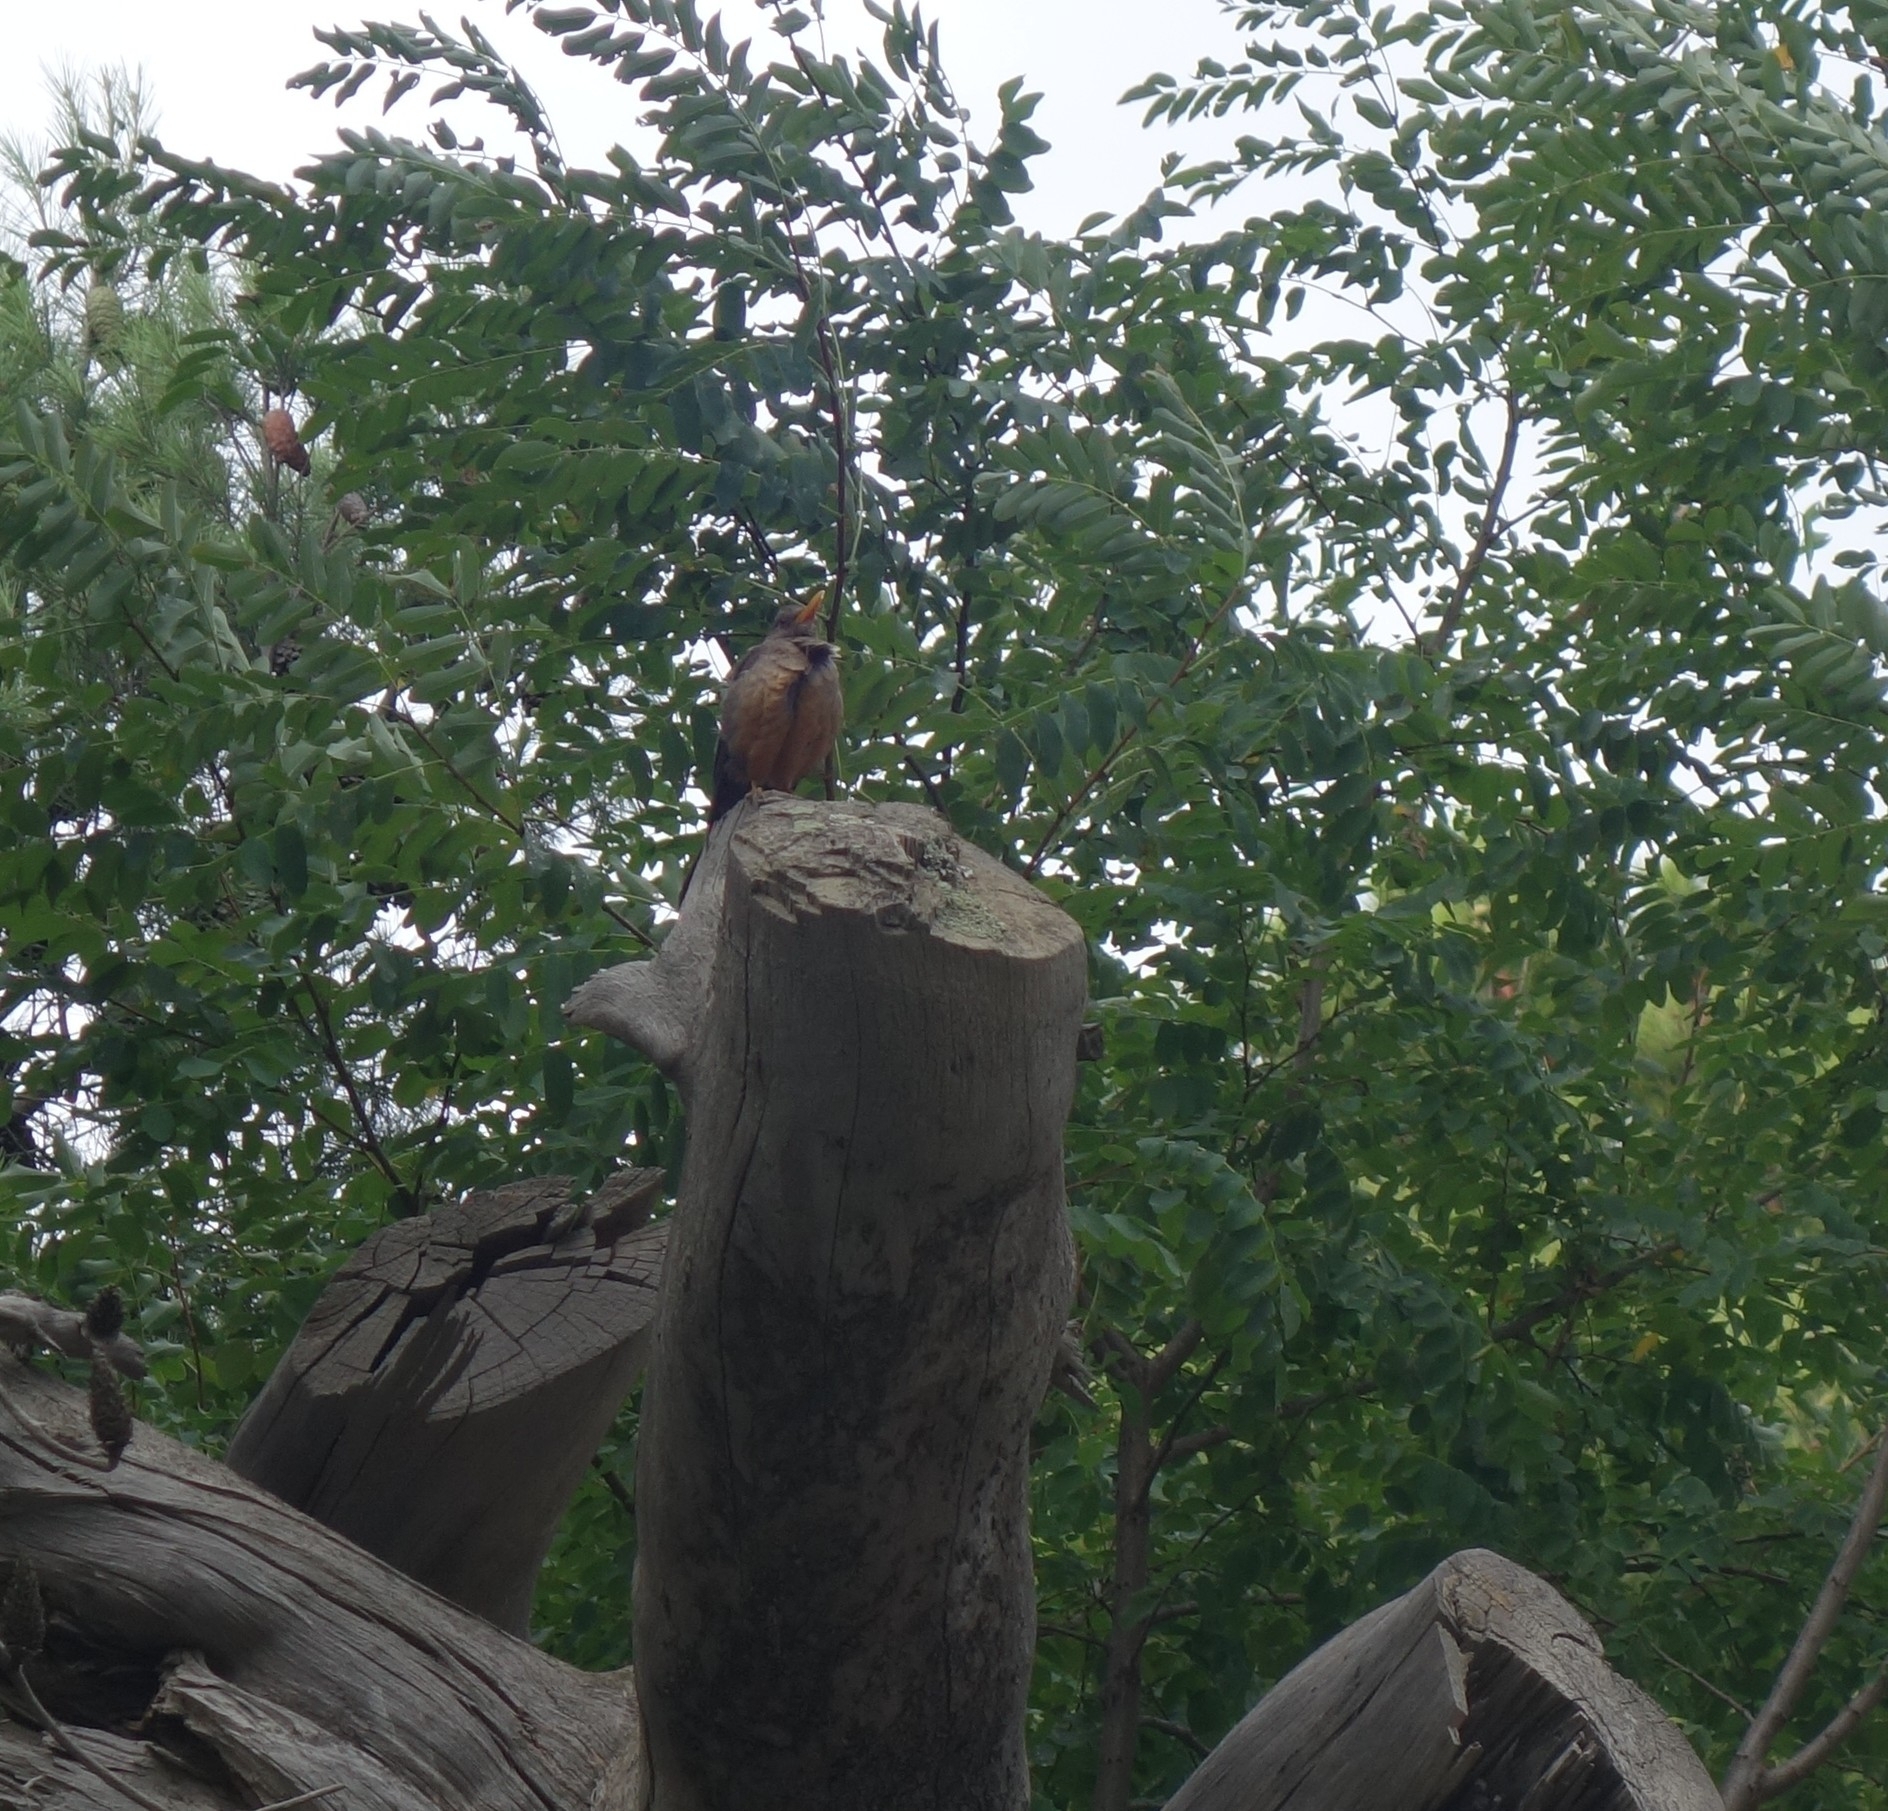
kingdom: Animalia
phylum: Chordata
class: Aves
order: Passeriformes
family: Turdidae
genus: Turdus
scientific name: Turdus smithi
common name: Karoo thrush
